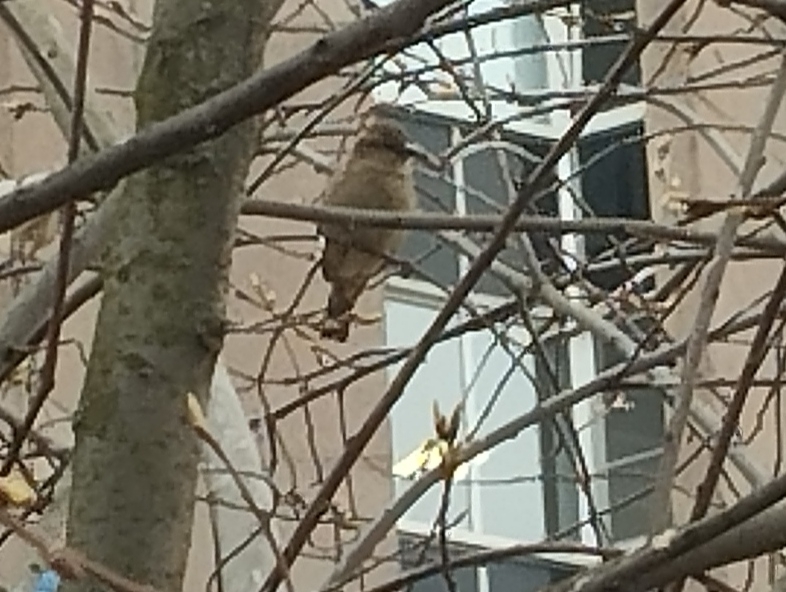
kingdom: Animalia
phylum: Chordata
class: Aves
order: Passeriformes
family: Passeridae
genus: Passer
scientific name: Passer domesticus
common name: House sparrow
